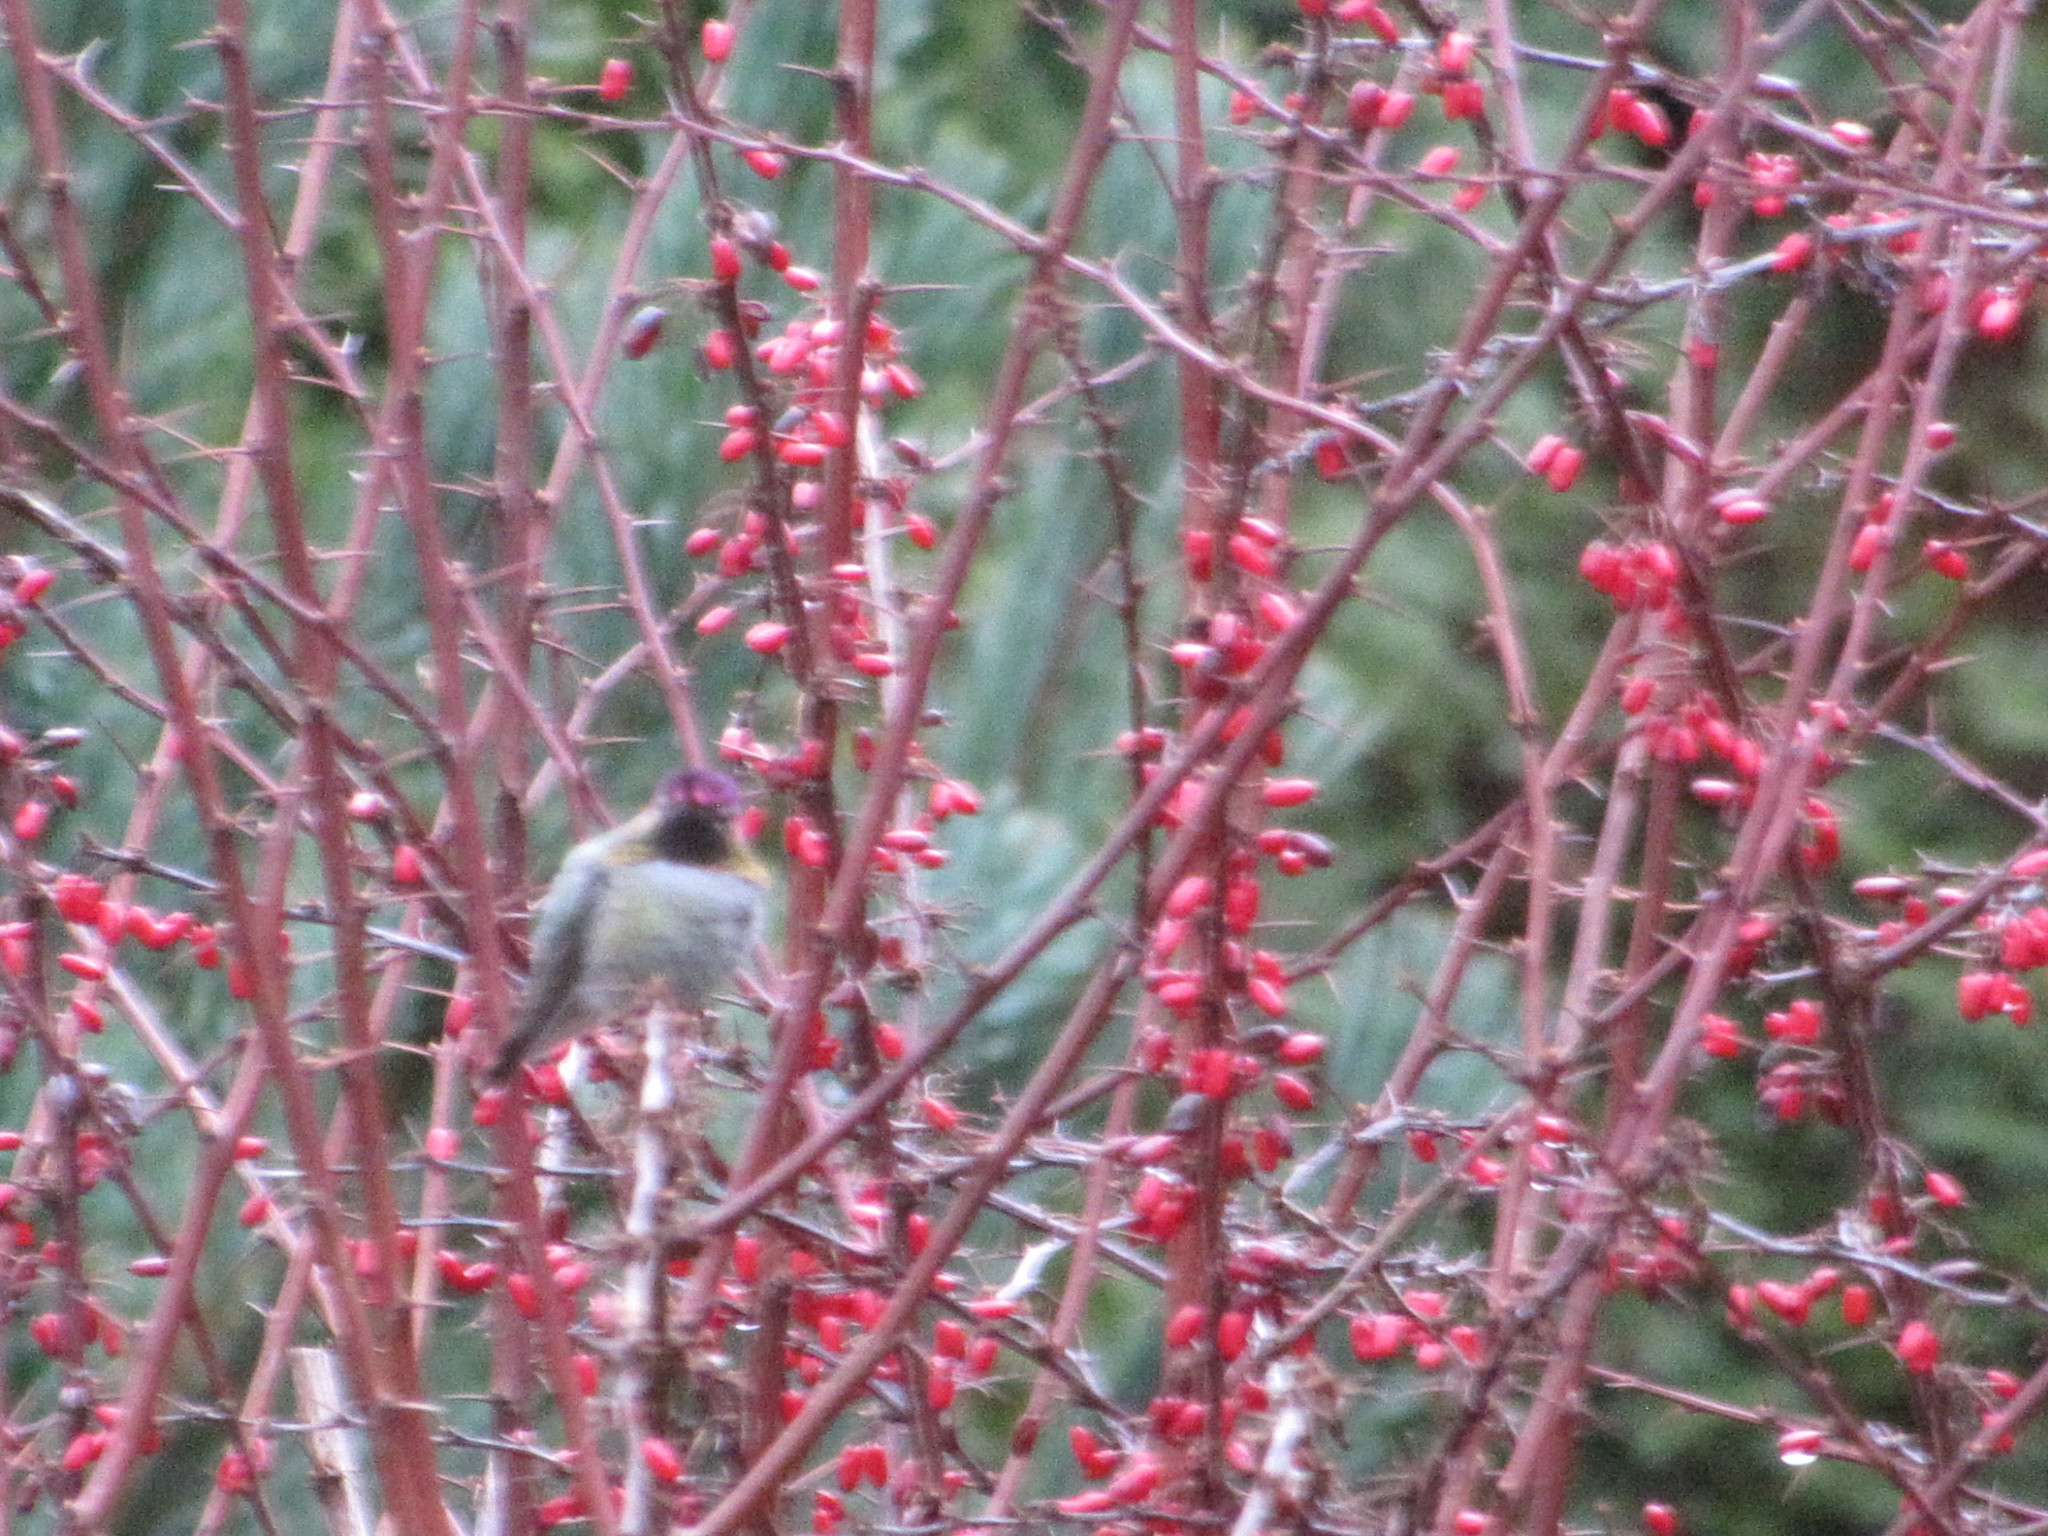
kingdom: Animalia
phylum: Chordata
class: Aves
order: Apodiformes
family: Trochilidae
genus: Calypte
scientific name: Calypte anna
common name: Anna's hummingbird
